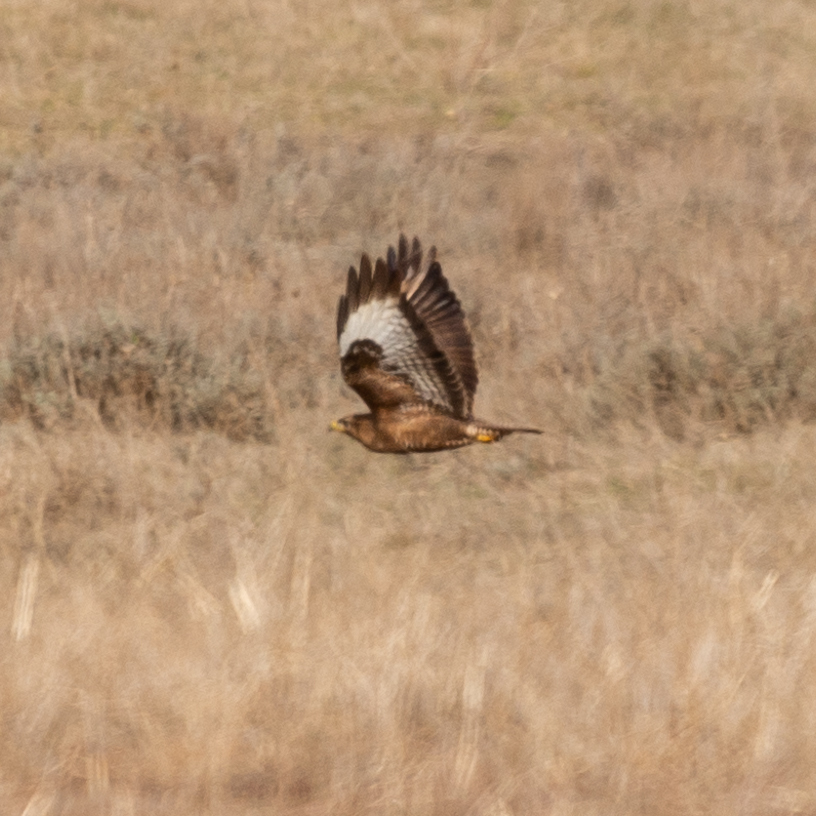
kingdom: Animalia
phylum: Chordata
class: Aves
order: Accipitriformes
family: Accipitridae
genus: Buteo
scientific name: Buteo buteo
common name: Common buzzard
